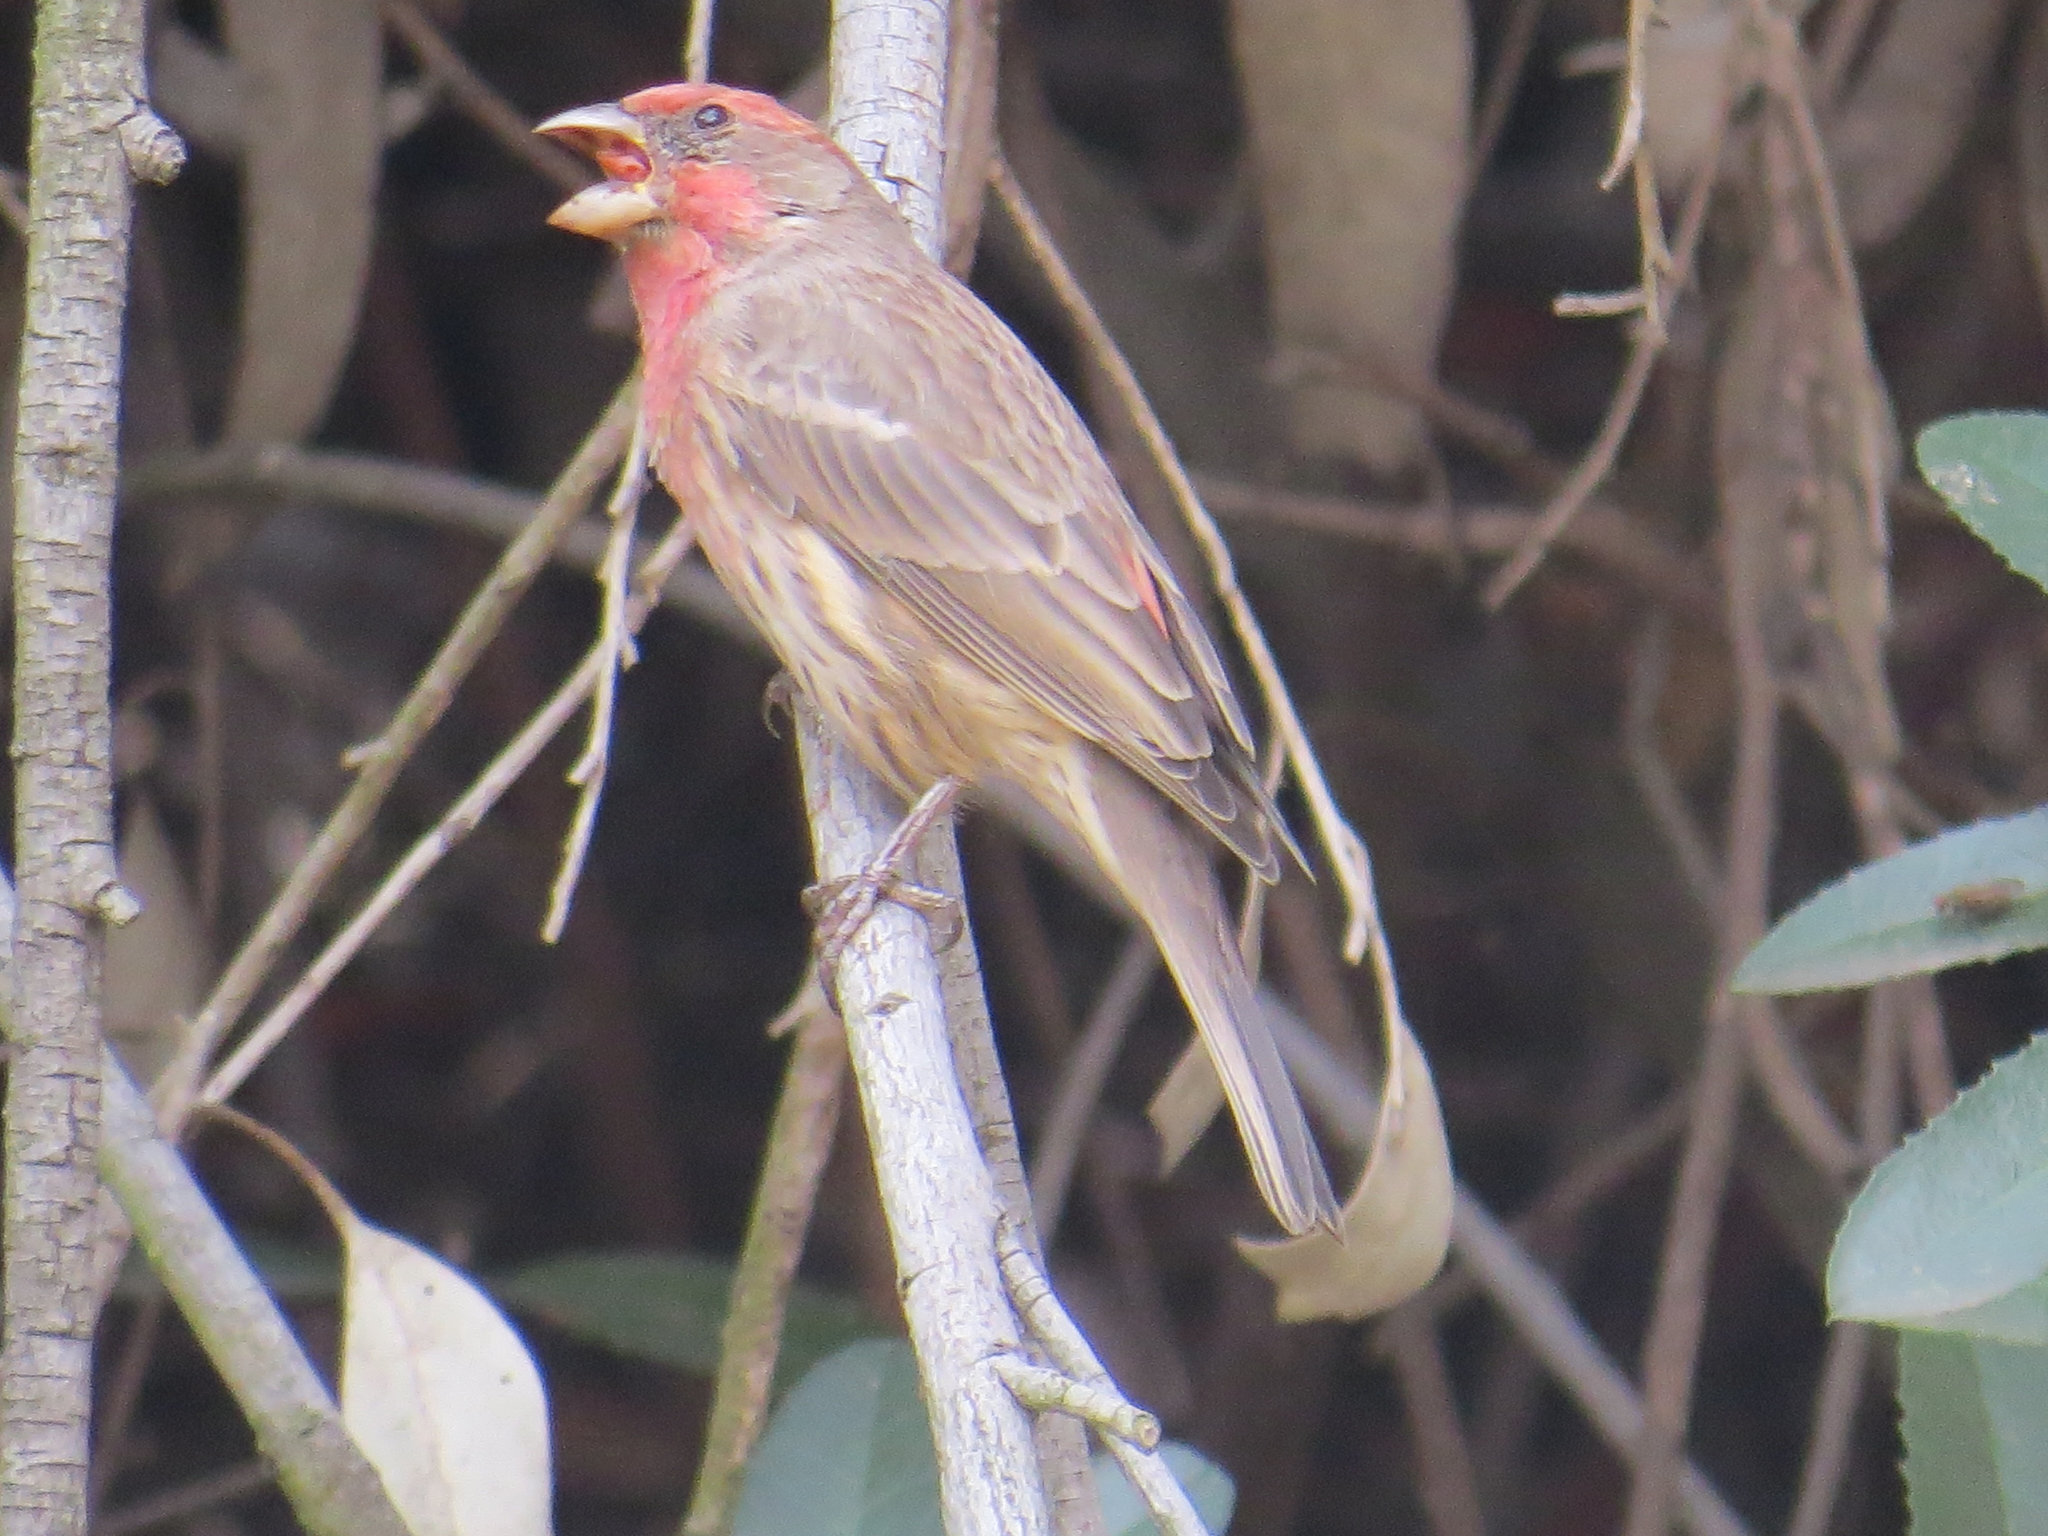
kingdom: Animalia
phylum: Chordata
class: Aves
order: Passeriformes
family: Fringillidae
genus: Haemorhous
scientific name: Haemorhous mexicanus
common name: House finch
